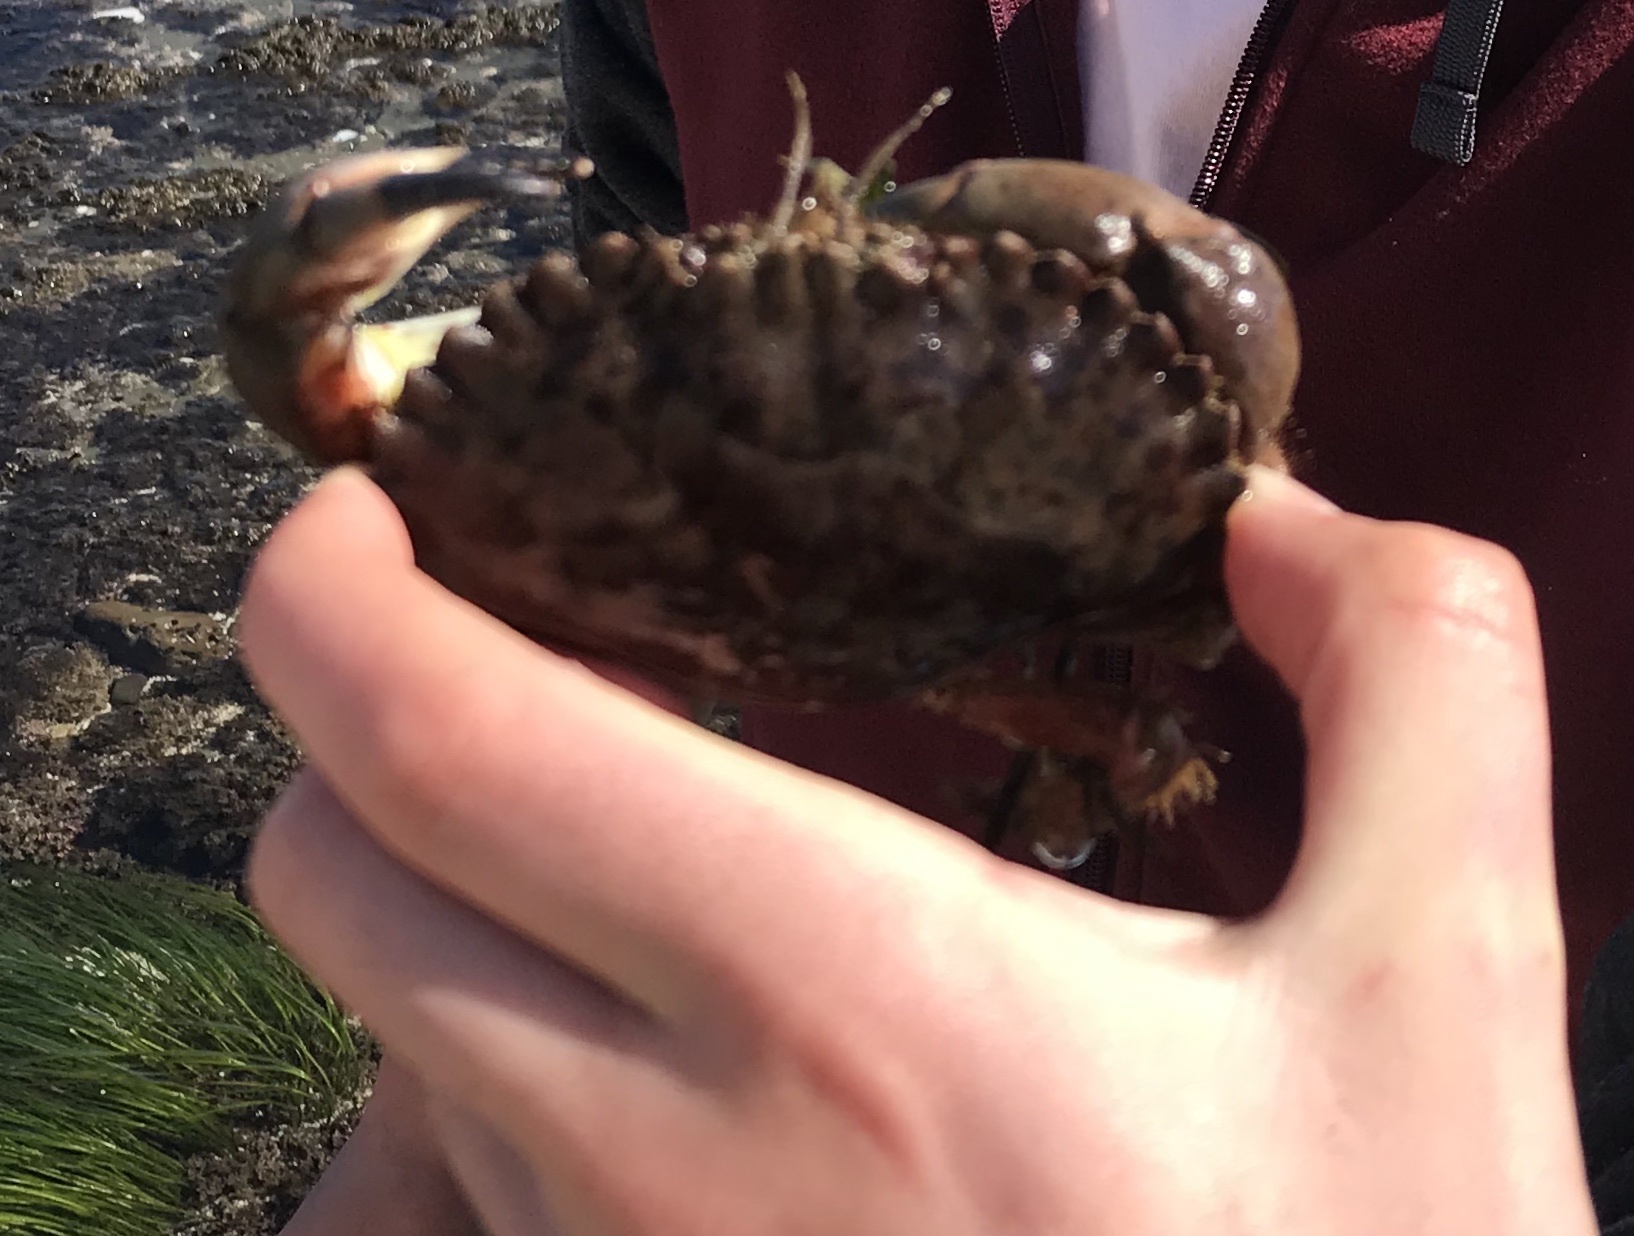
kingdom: Animalia
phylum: Arthropoda
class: Malacostraca
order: Decapoda
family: Cancridae
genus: Romaleon
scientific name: Romaleon antennarium
